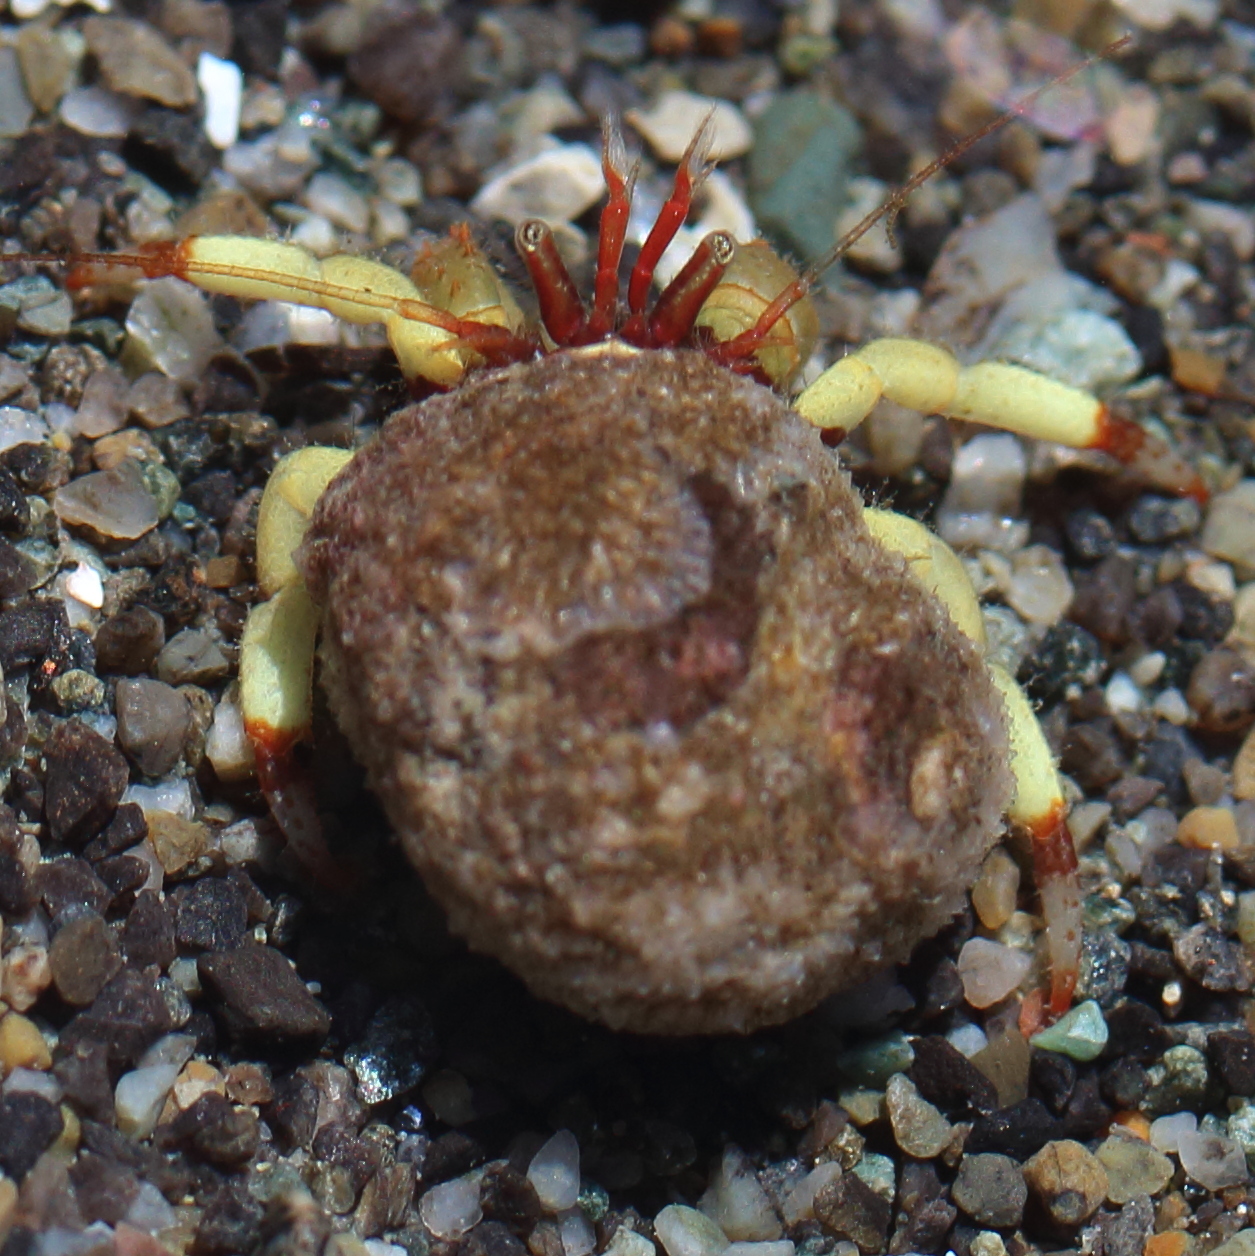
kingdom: Animalia
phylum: Arthropoda
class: Malacostraca
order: Decapoda
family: Paguridae
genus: Pagurus
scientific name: Pagurus beringanus
